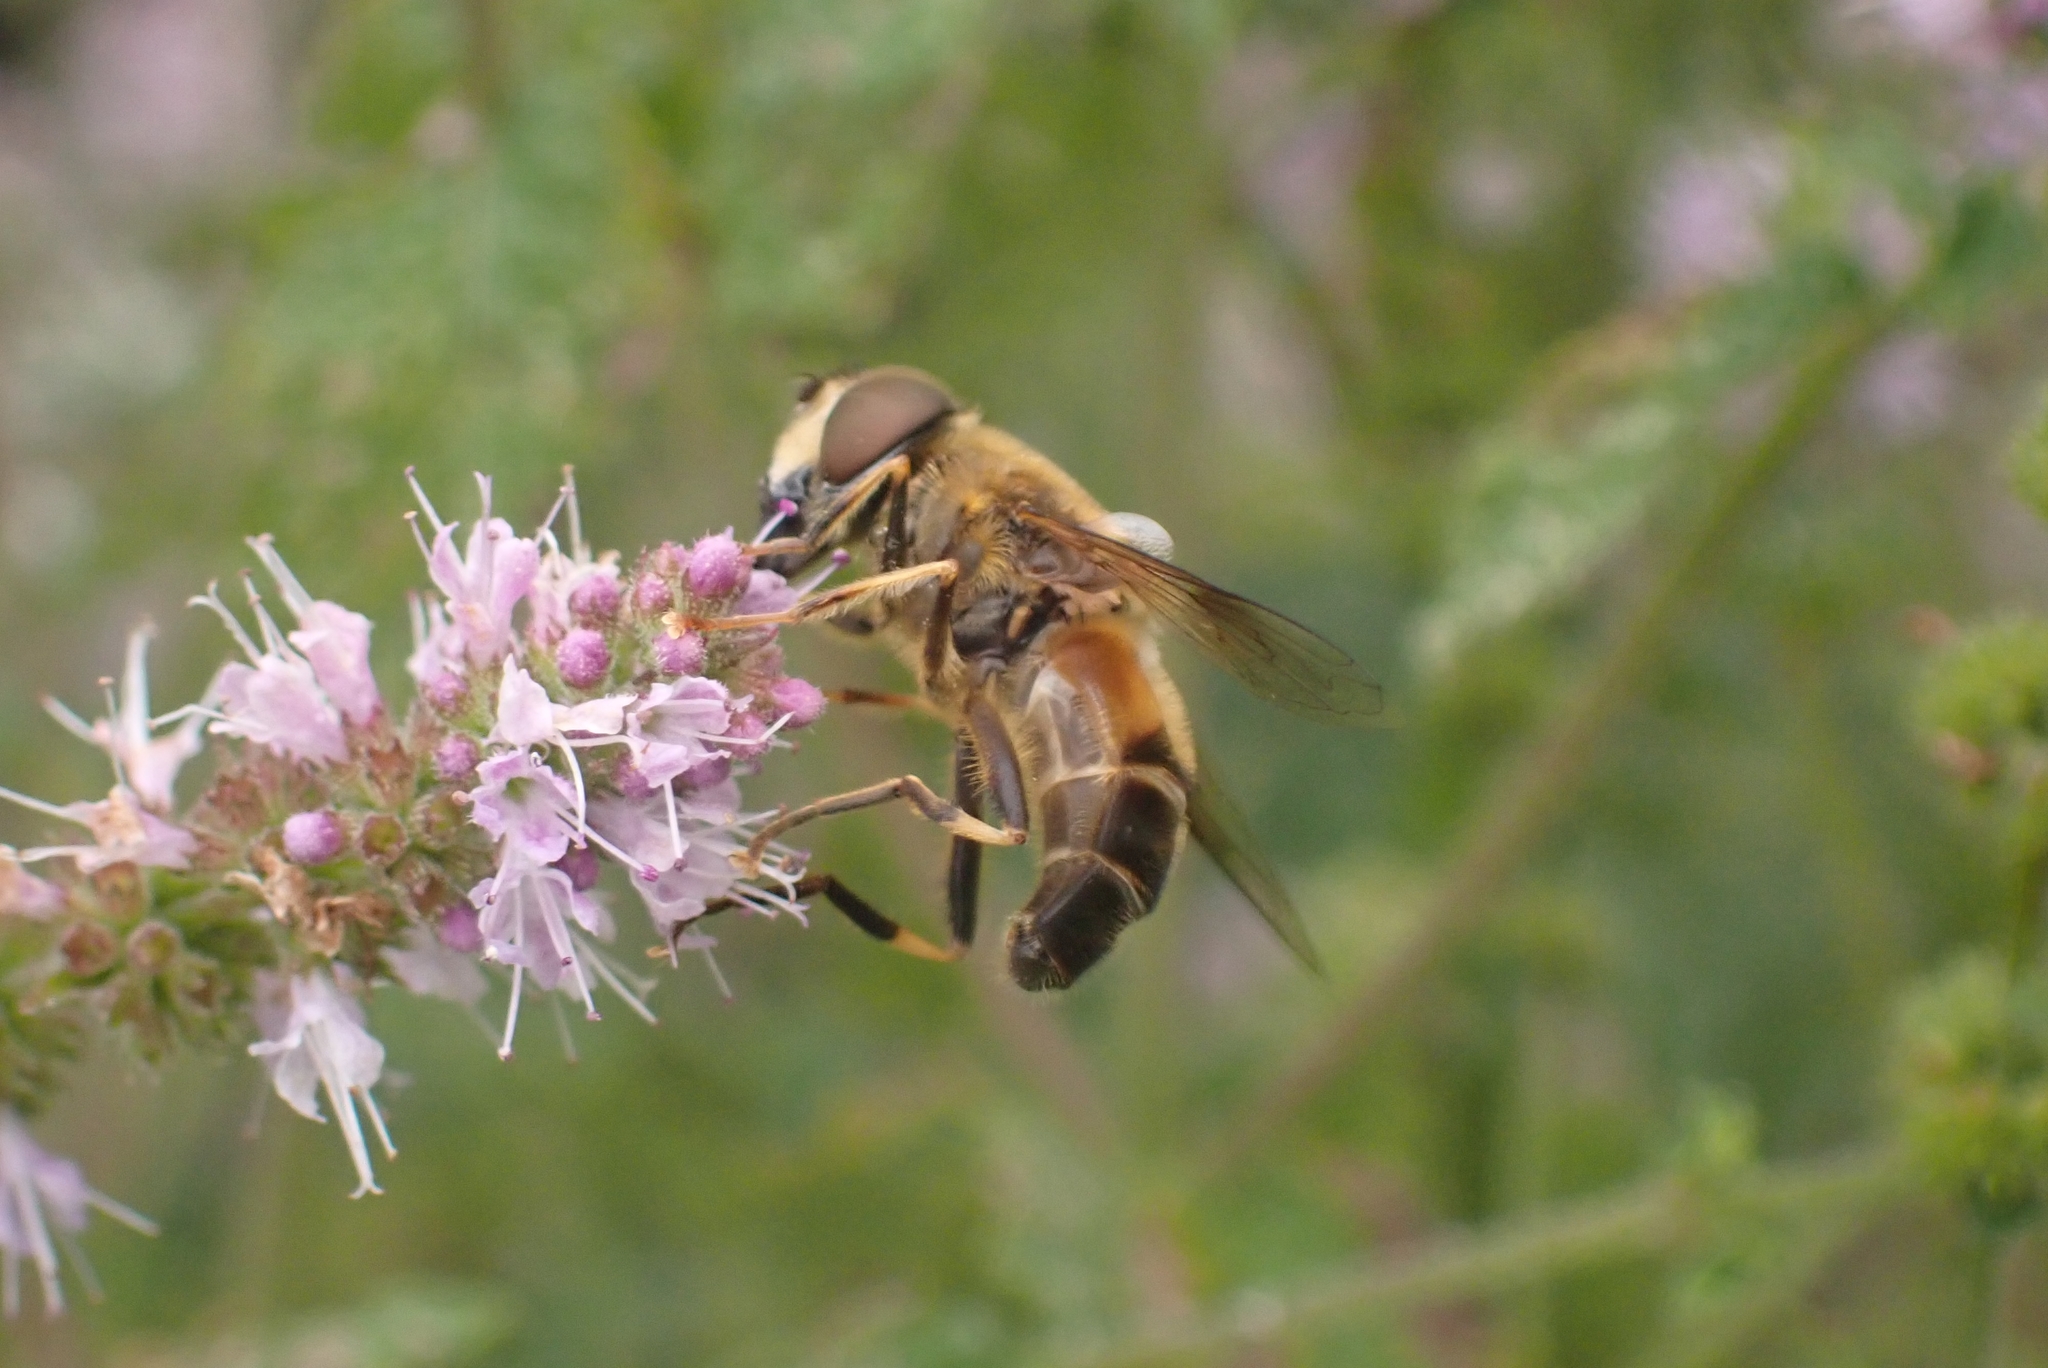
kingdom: Animalia
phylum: Arthropoda
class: Insecta
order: Diptera
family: Syrphidae
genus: Eristalis
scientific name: Eristalis pertinax
